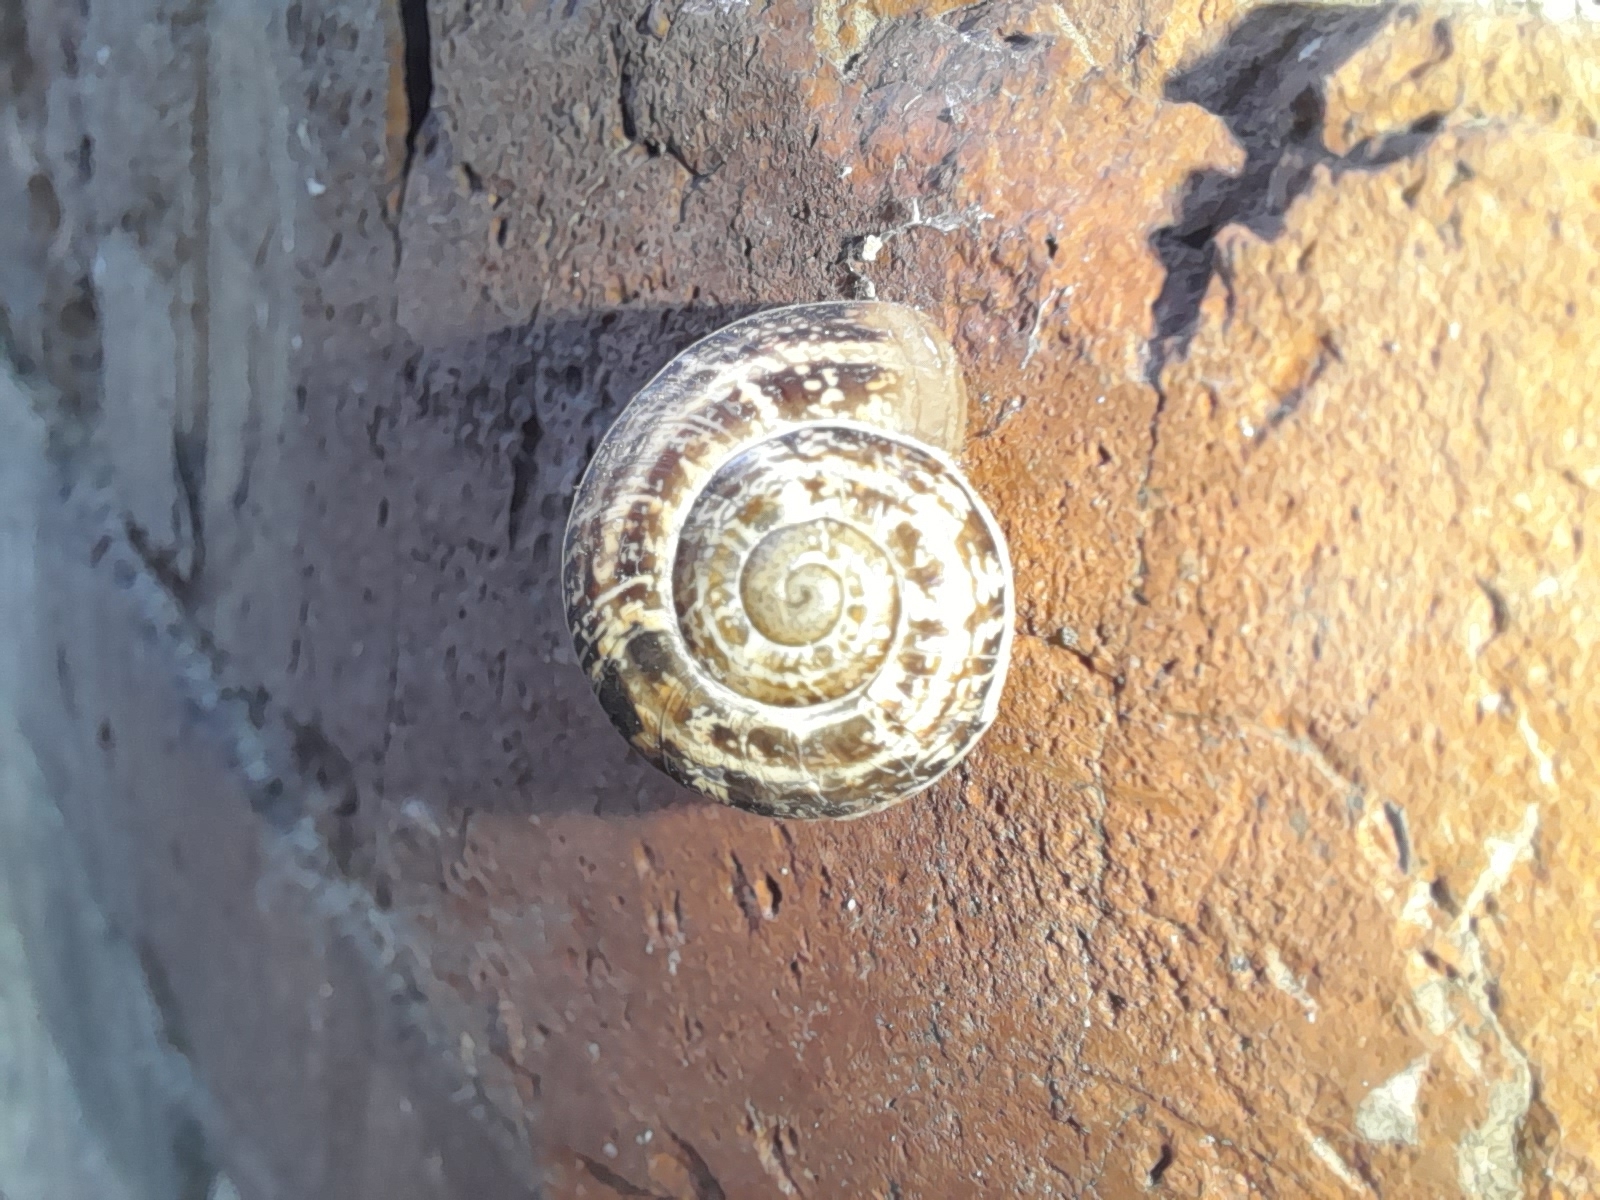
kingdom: Animalia
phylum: Mollusca
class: Gastropoda
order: Stylommatophora
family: Helicidae
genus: Eobania
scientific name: Eobania vermiculata
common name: Chocolateband snail
